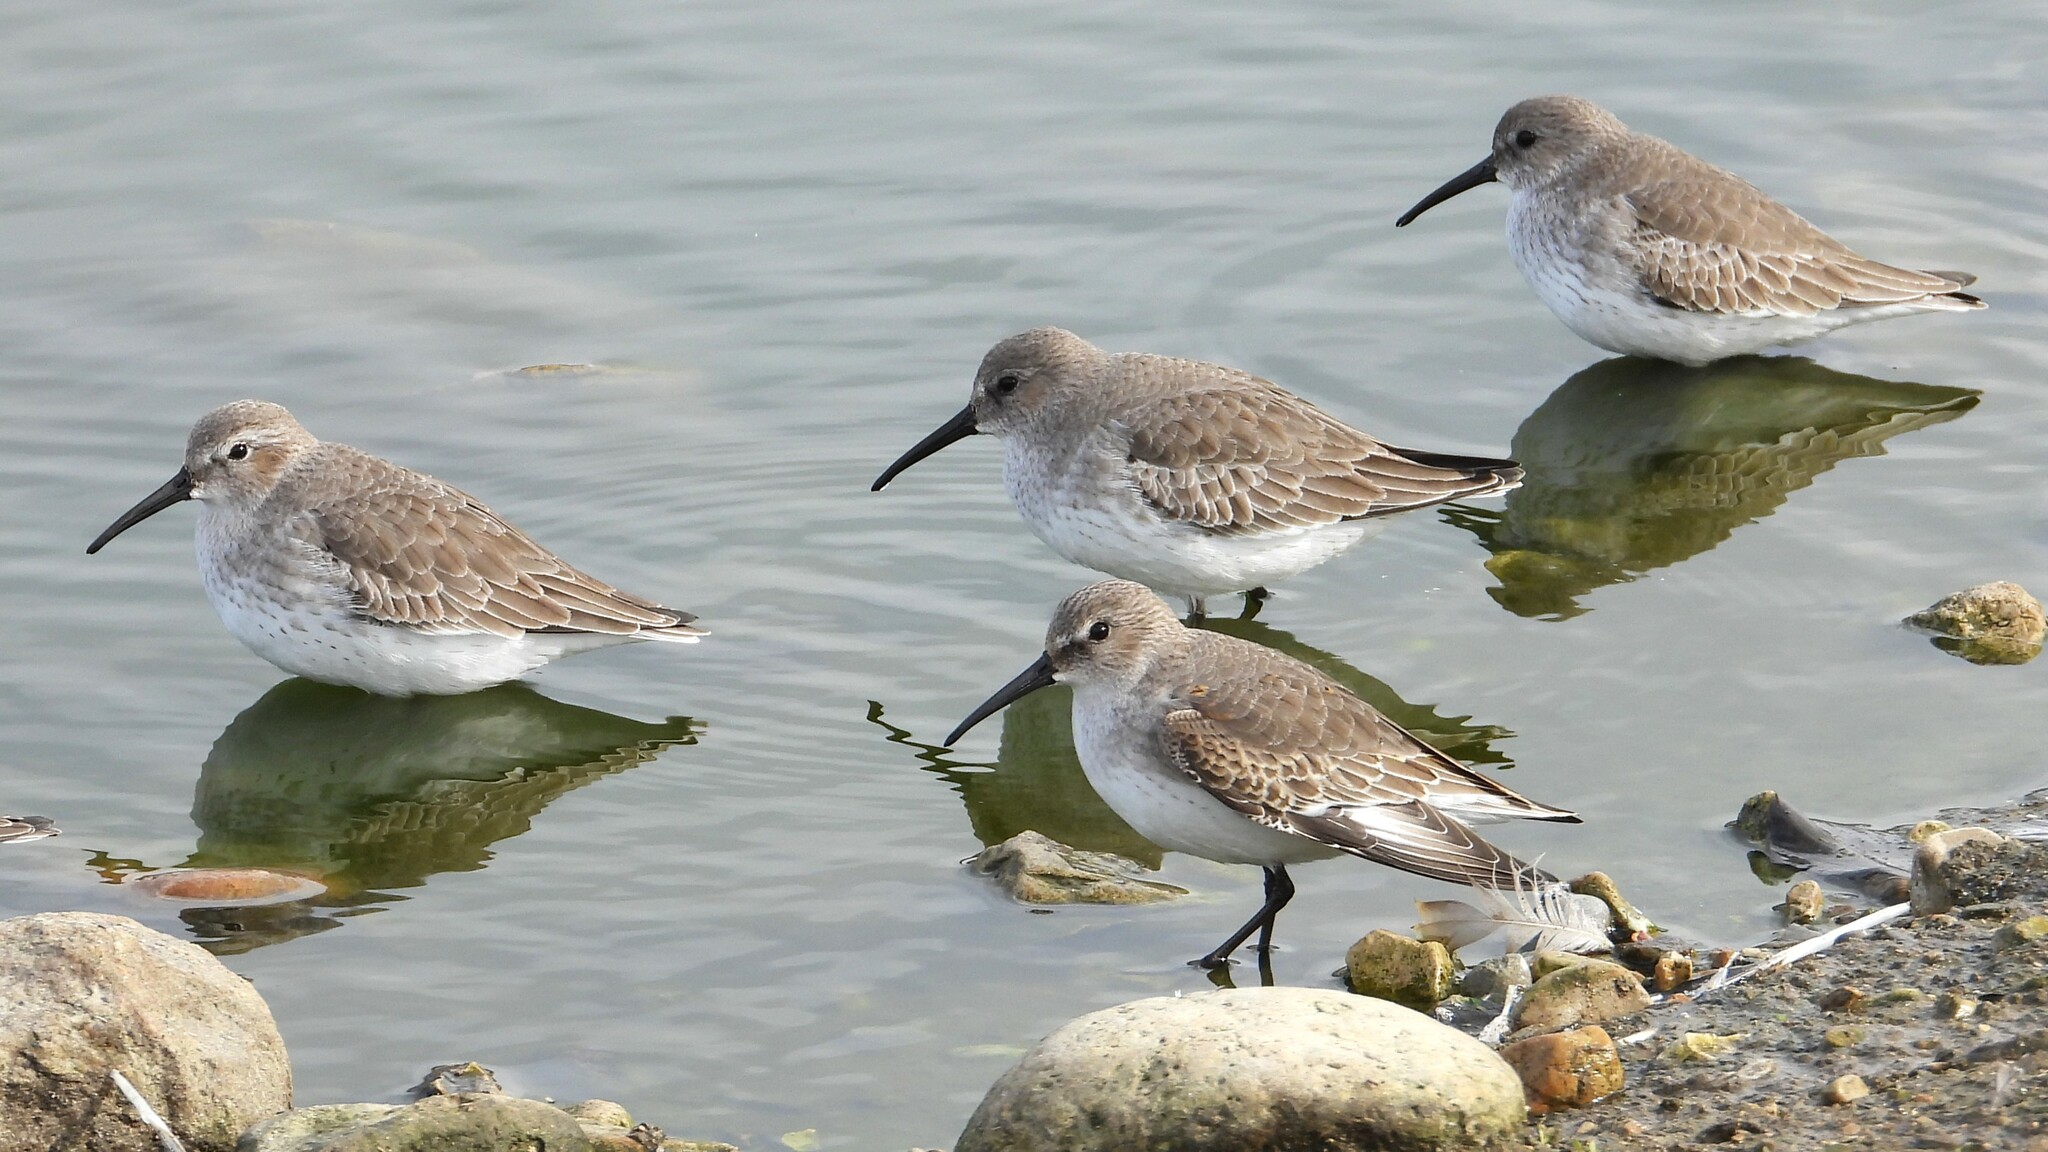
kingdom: Animalia
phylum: Chordata
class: Aves
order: Charadriiformes
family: Scolopacidae
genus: Calidris
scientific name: Calidris alpina
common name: Dunlin
